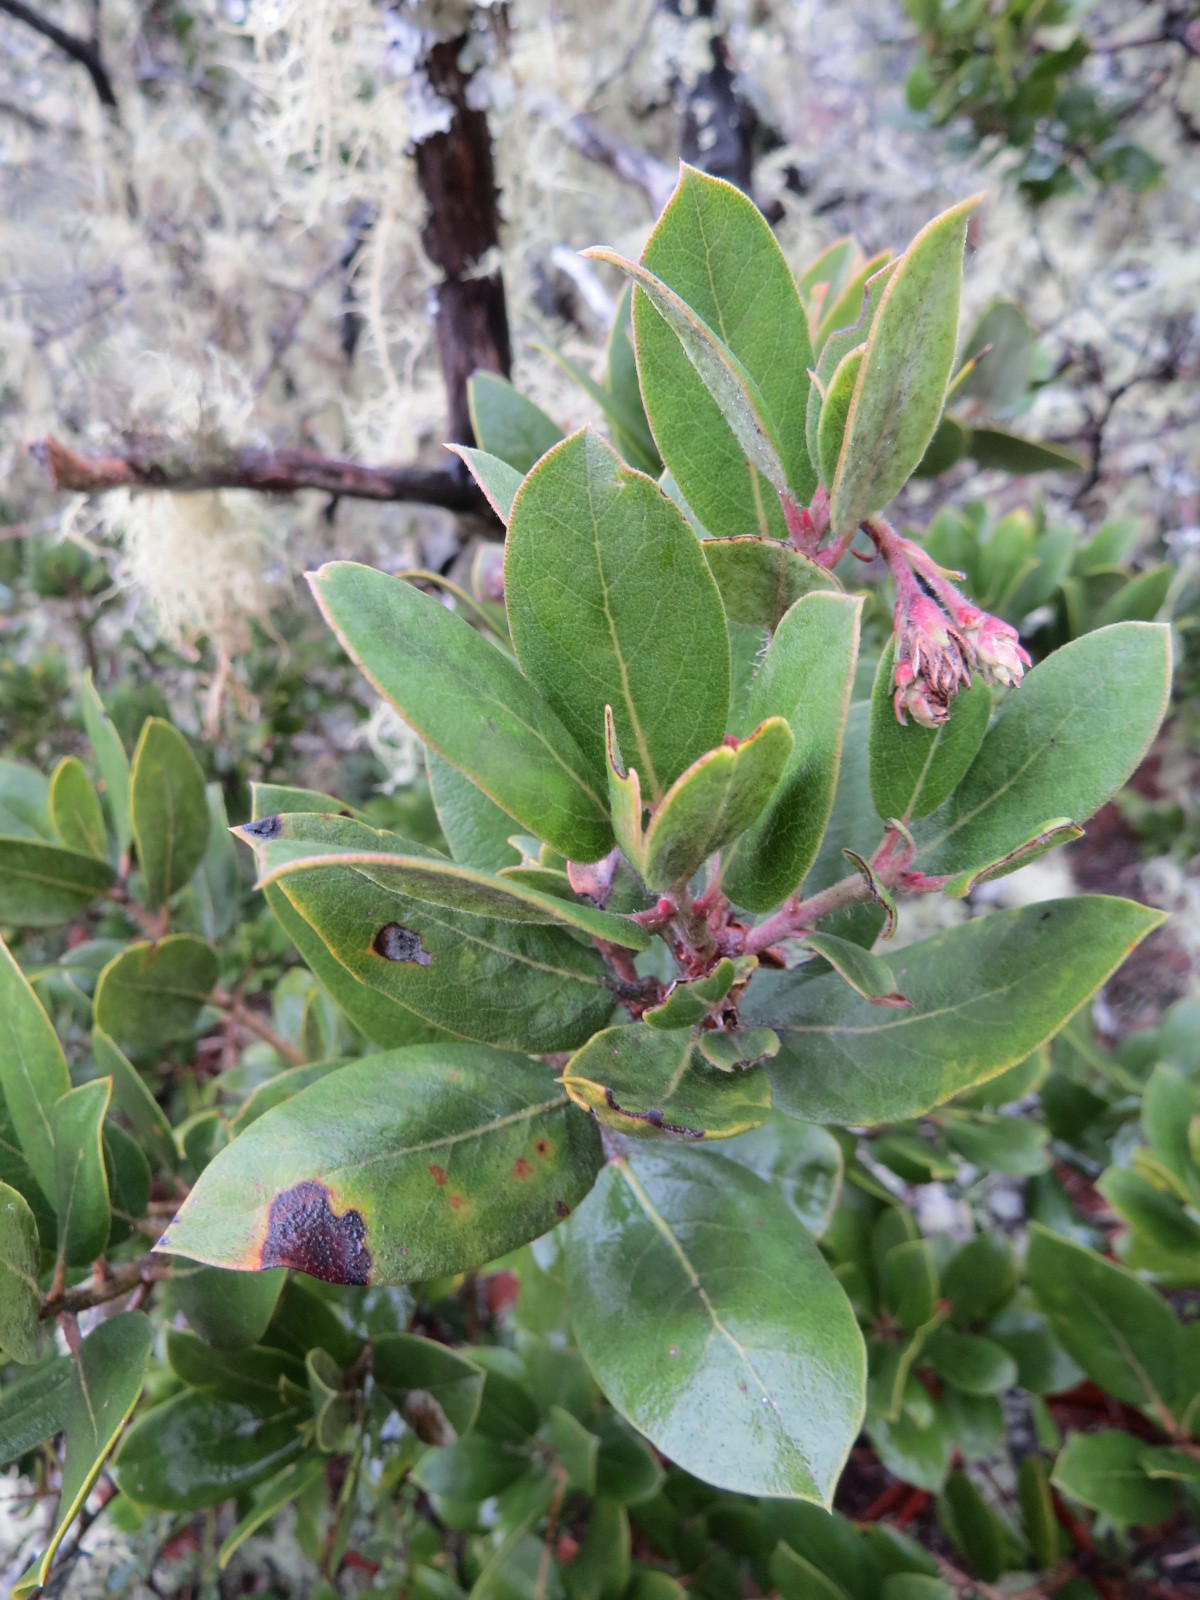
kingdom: Plantae
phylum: Tracheophyta
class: Magnoliopsida
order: Ericales
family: Ericaceae
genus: Arctostaphylos
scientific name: Arctostaphylos crustacea
